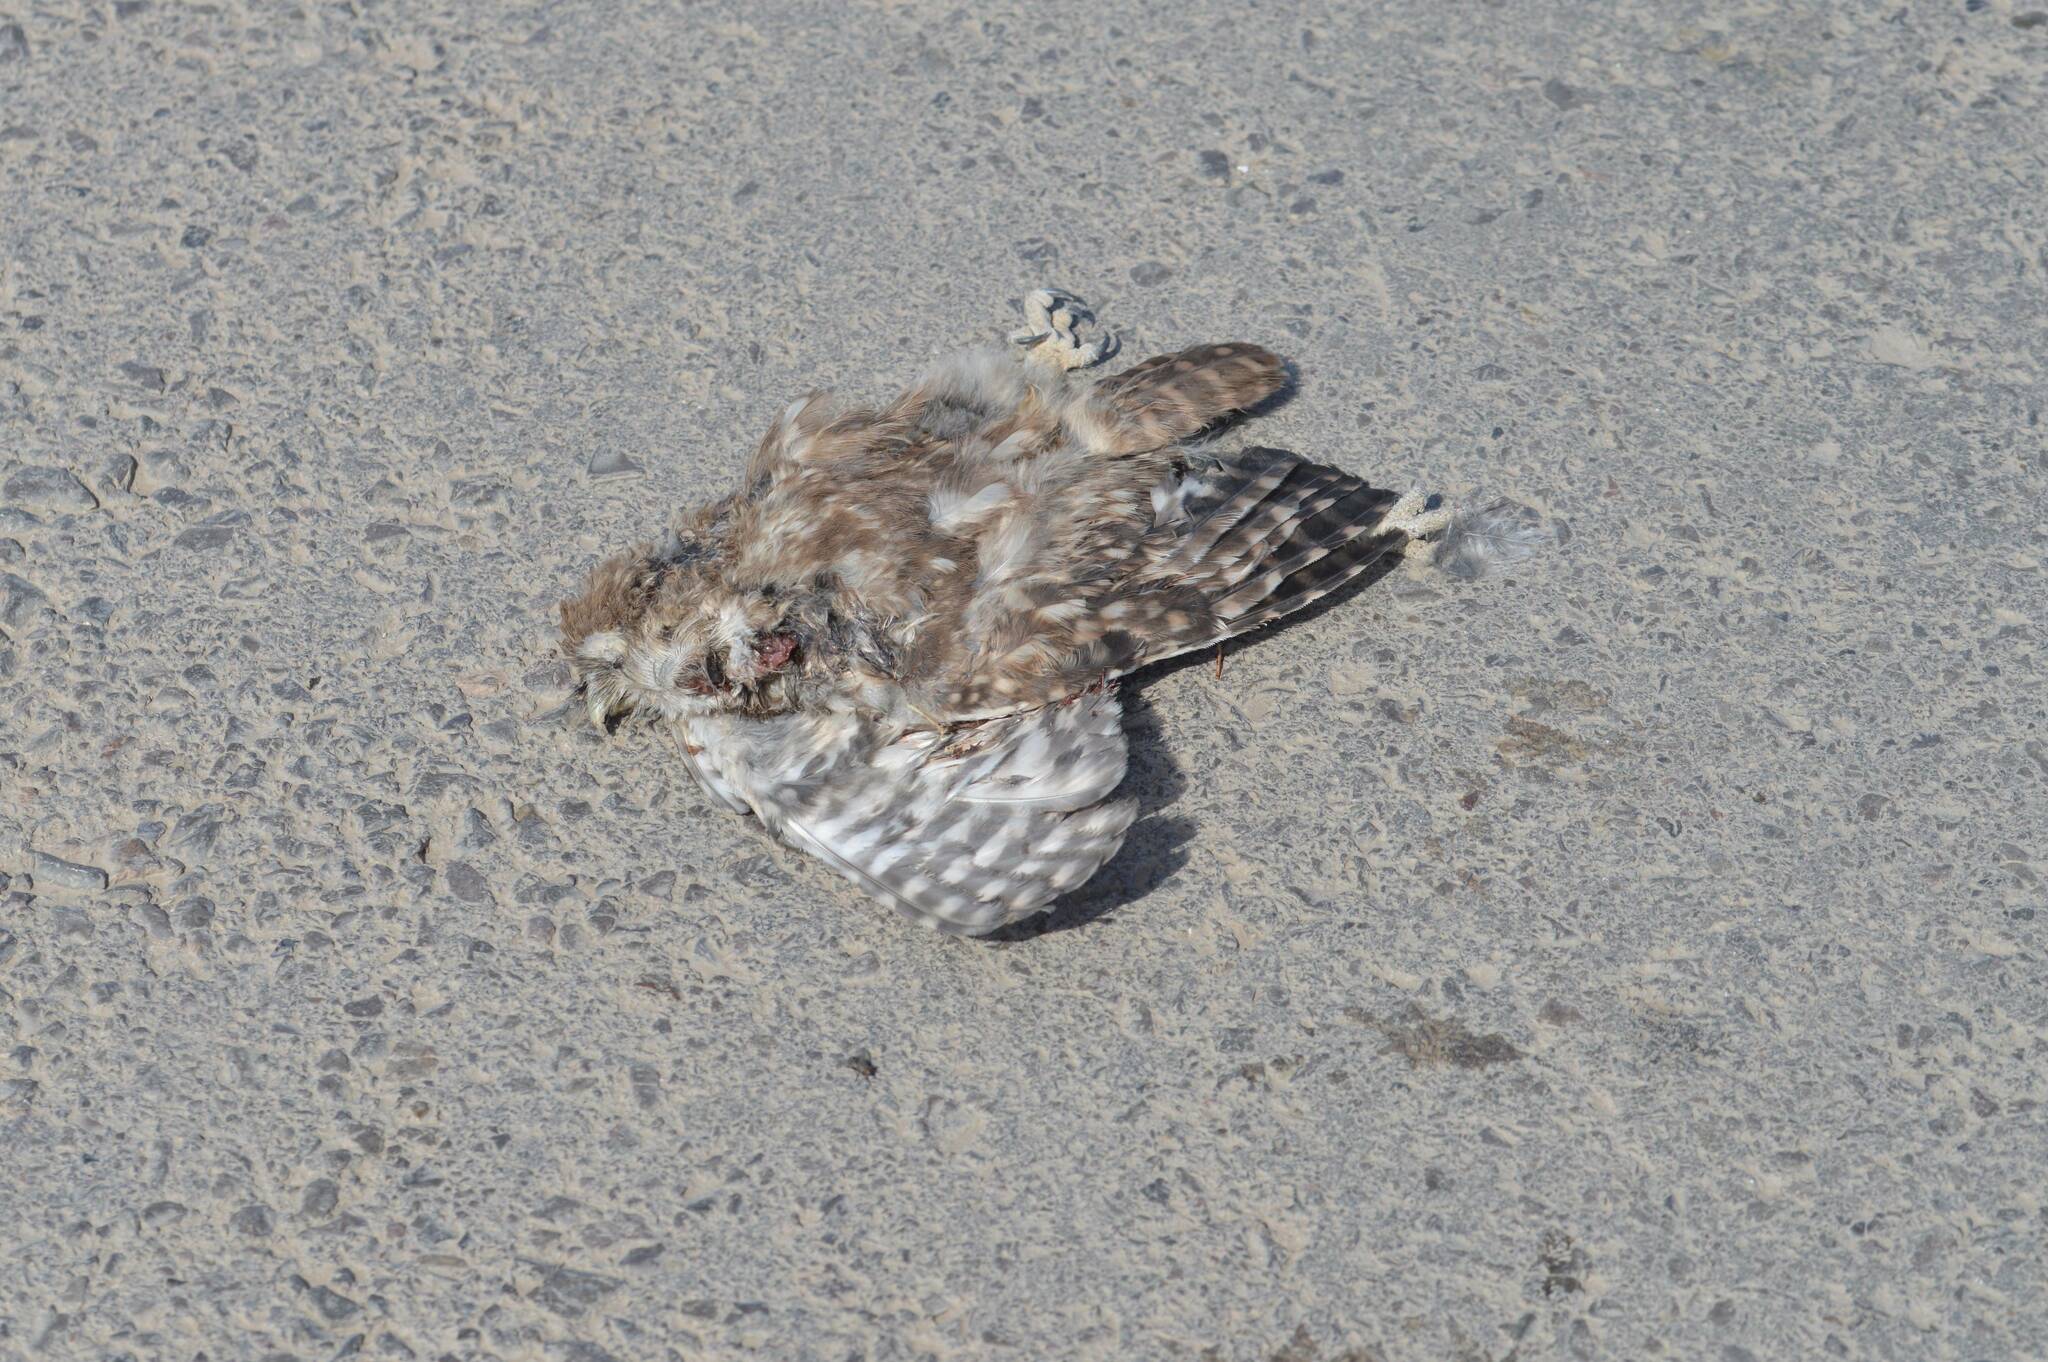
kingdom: Animalia
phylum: Chordata
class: Aves
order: Strigiformes
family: Strigidae
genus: Athene
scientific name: Athene noctua
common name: Little owl
